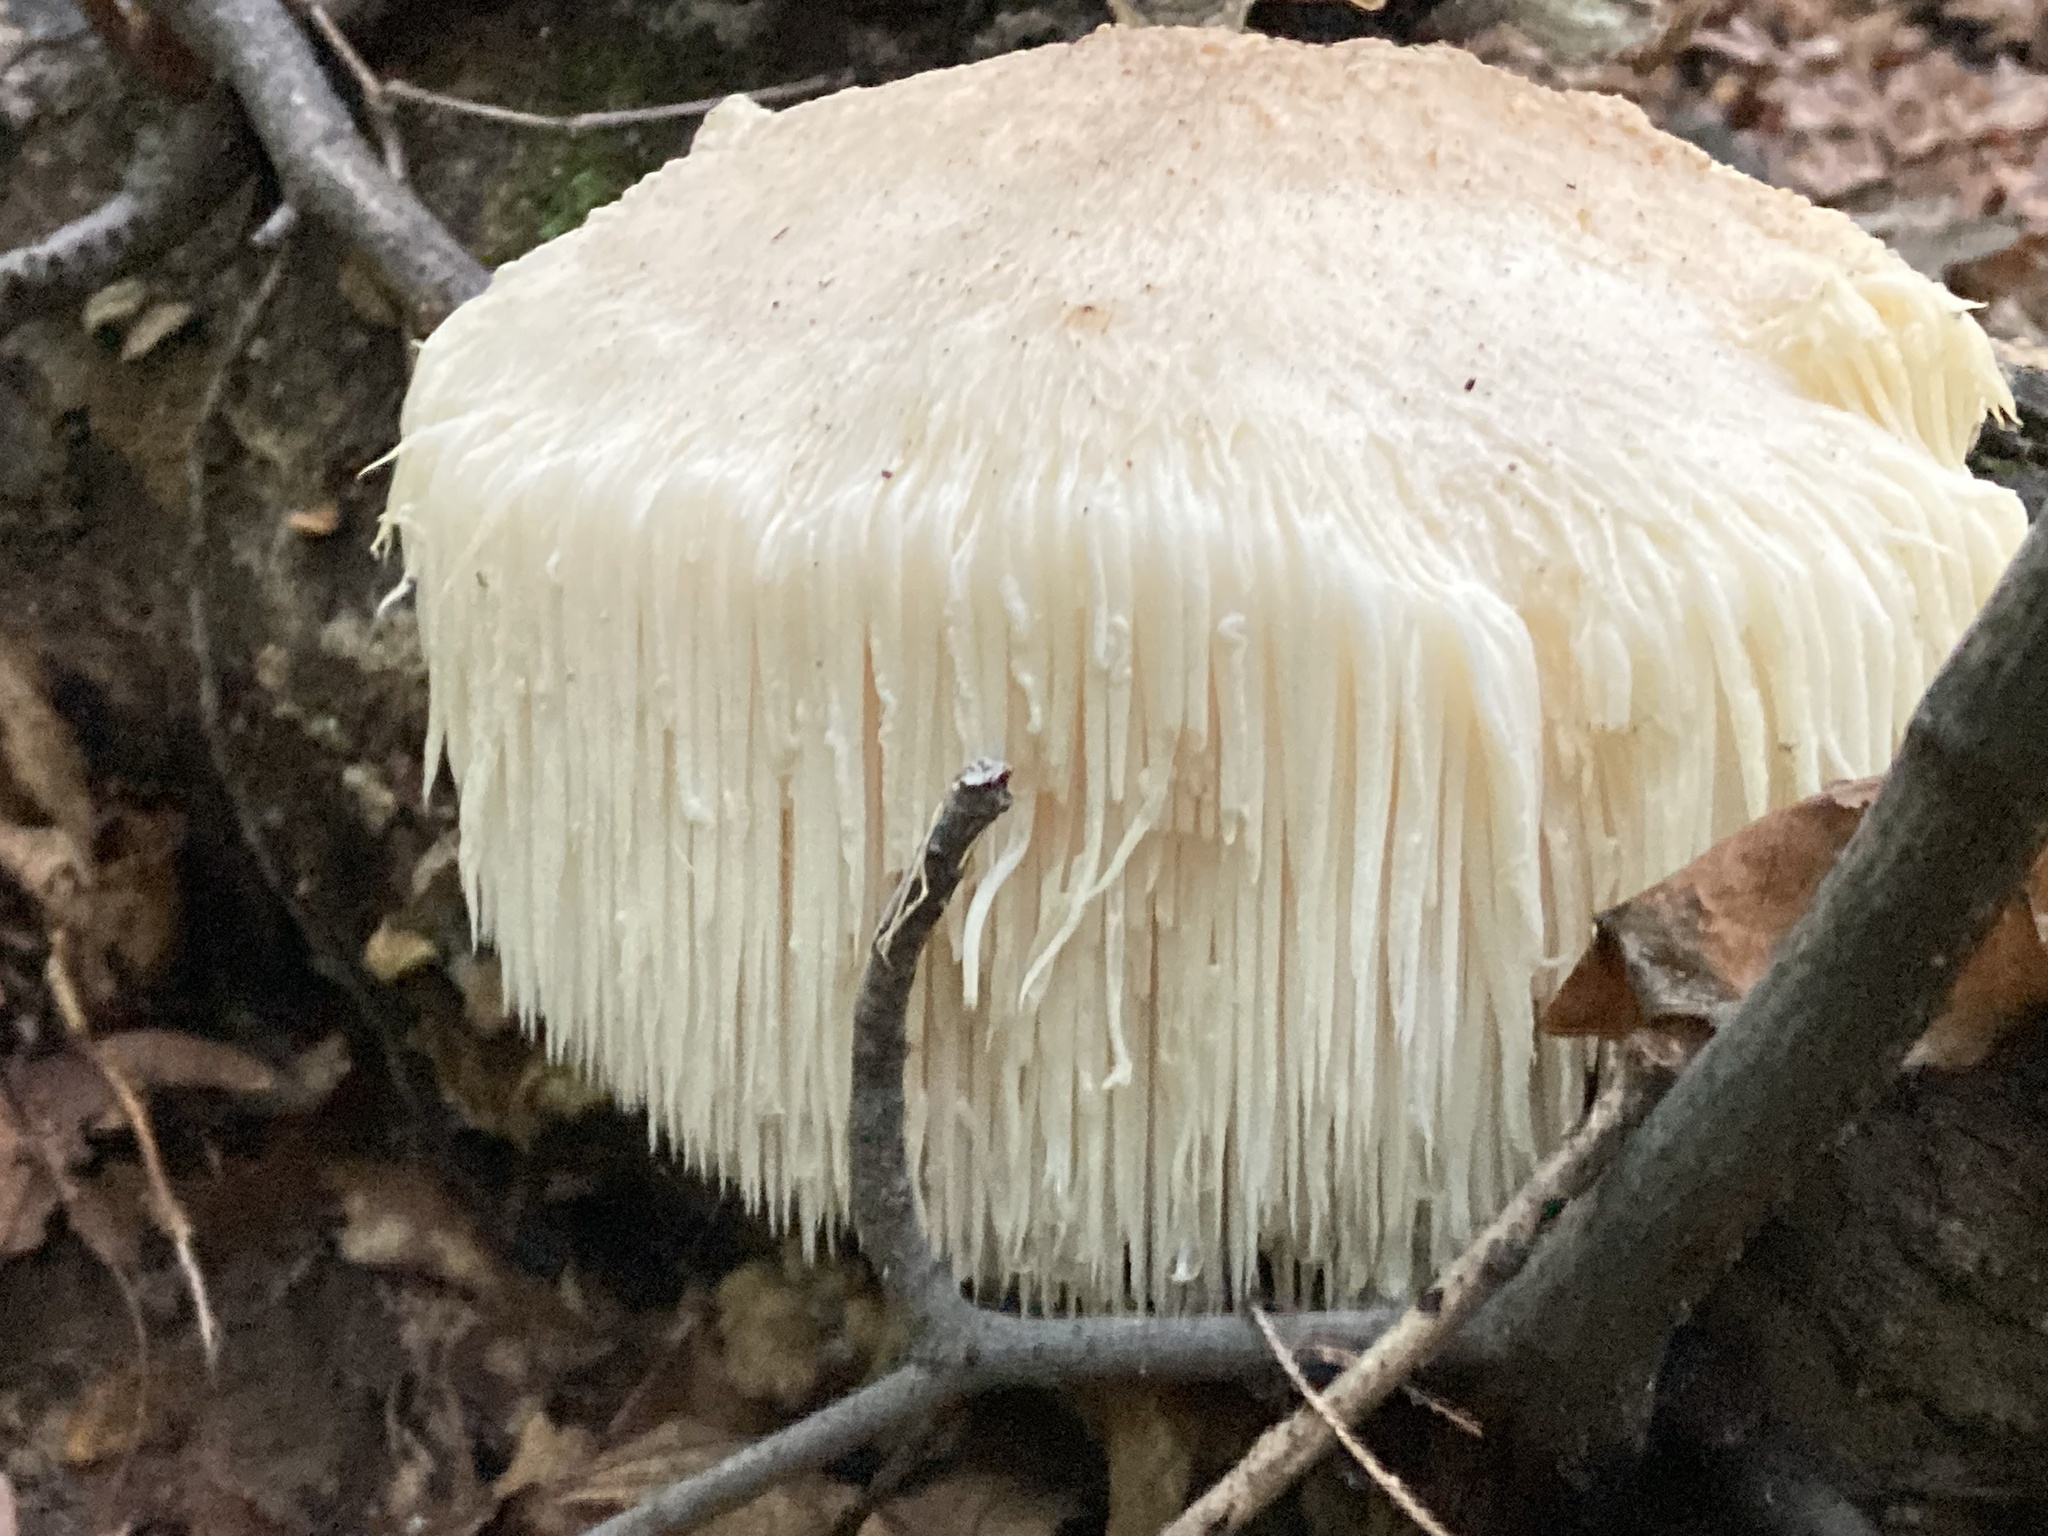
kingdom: Fungi
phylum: Basidiomycota
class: Agaricomycetes
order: Russulales
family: Hericiaceae
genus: Hericium
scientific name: Hericium erinaceus
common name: Bearded tooth
